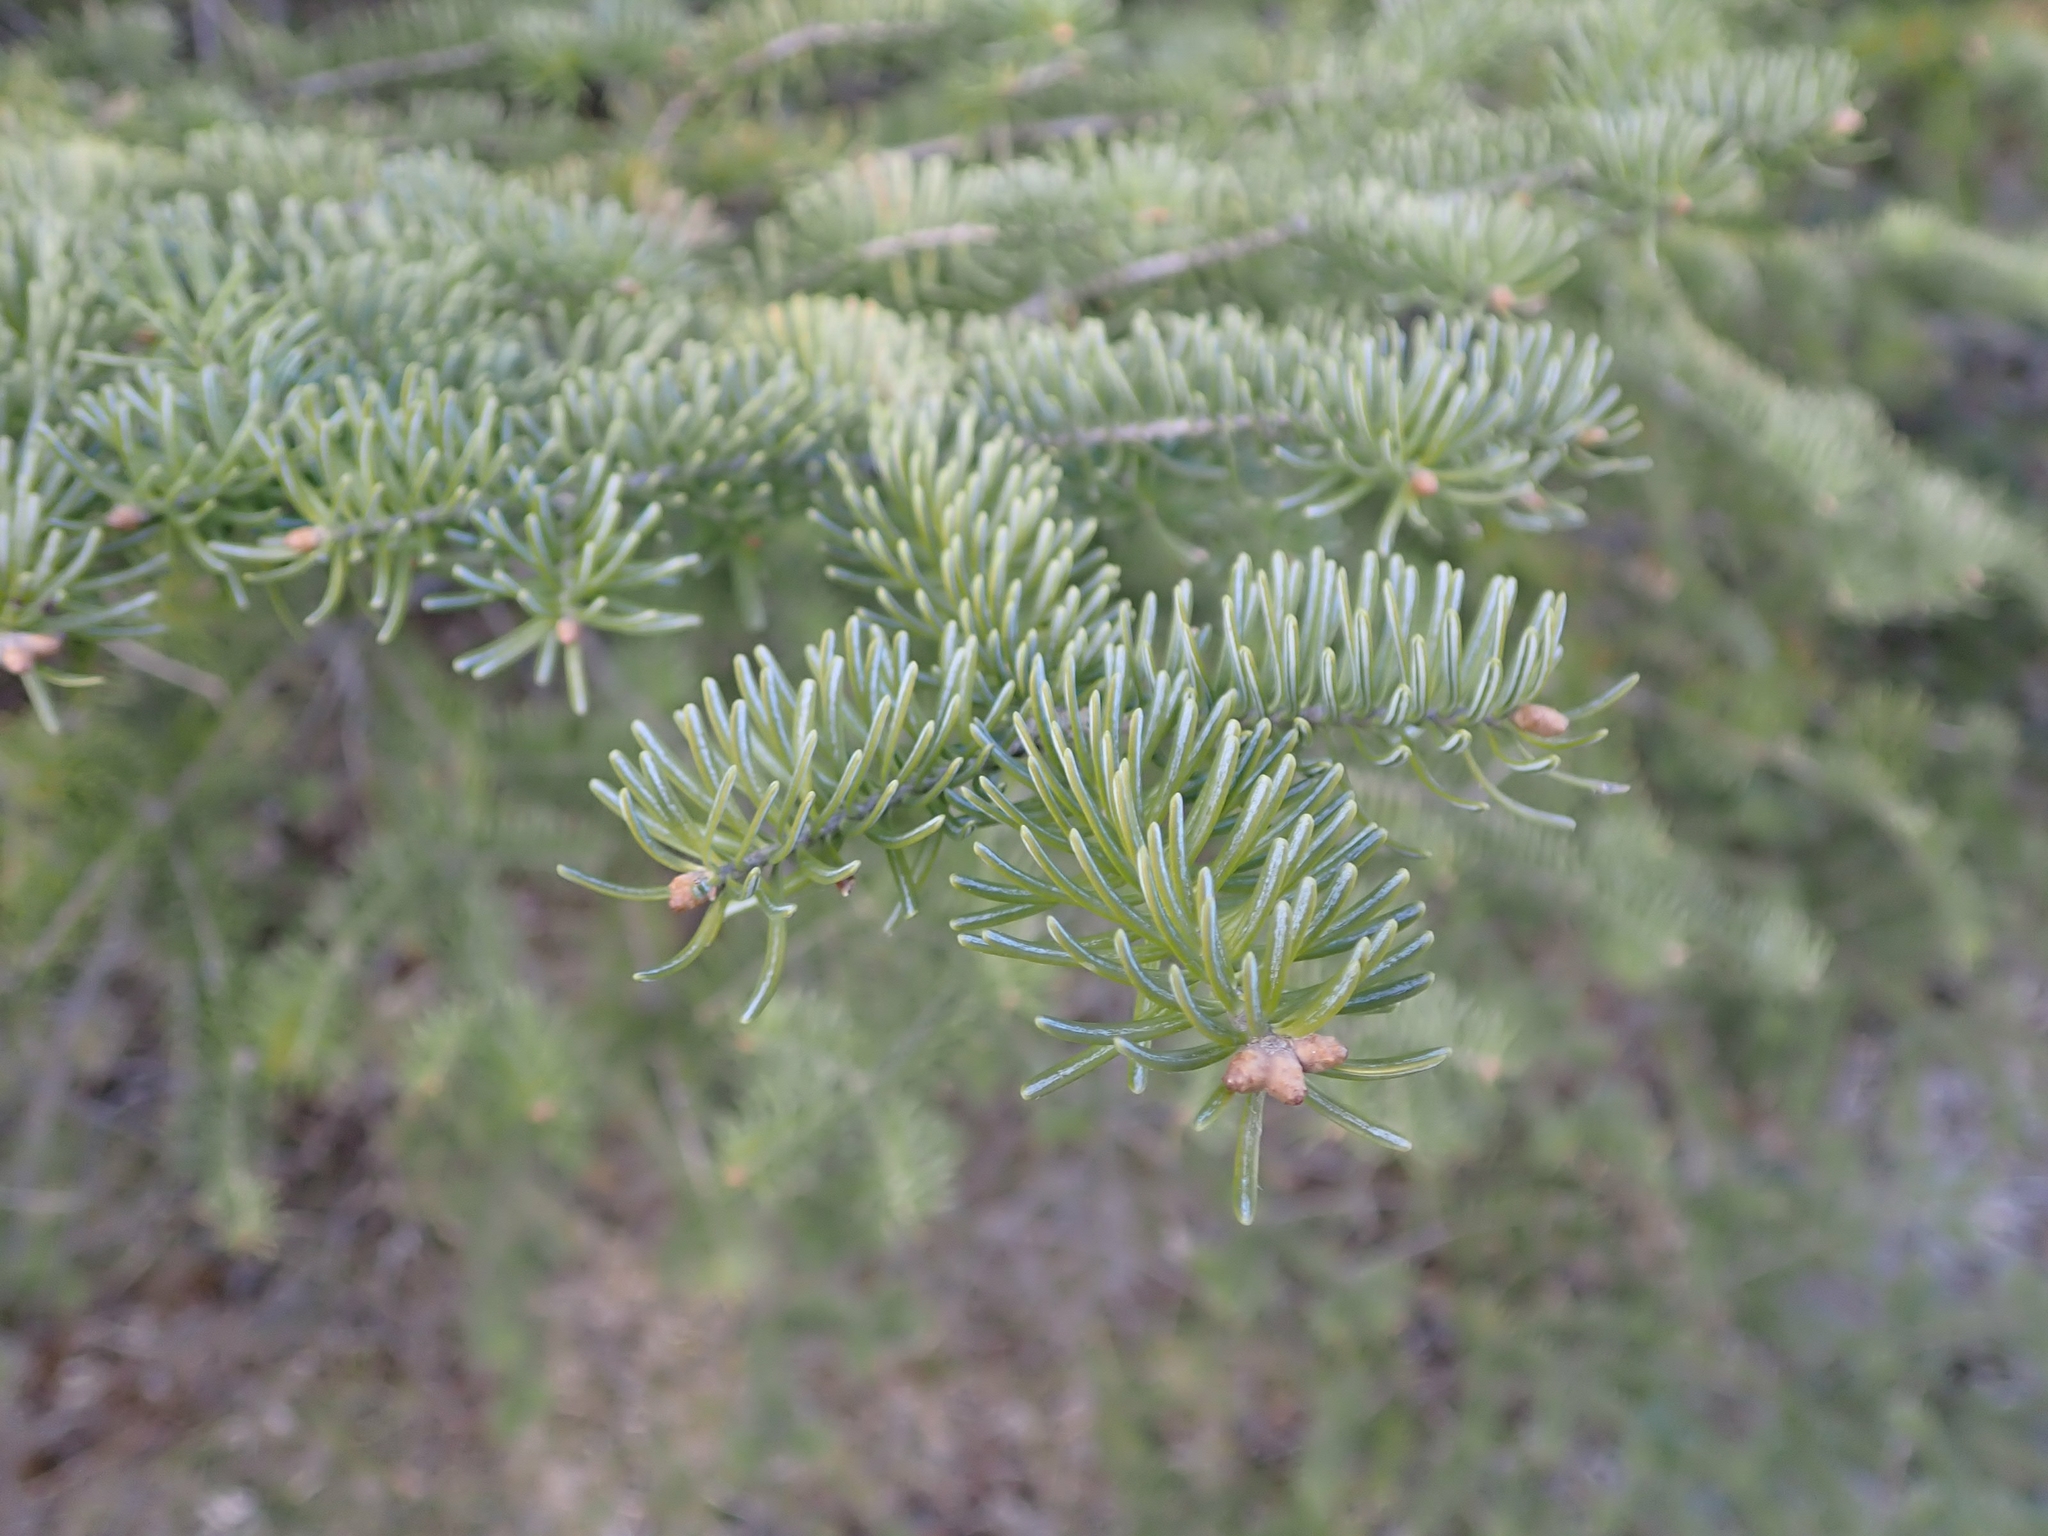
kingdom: Plantae
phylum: Tracheophyta
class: Pinopsida
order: Pinales
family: Pinaceae
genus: Picea
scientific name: Picea glauca
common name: White spruce
